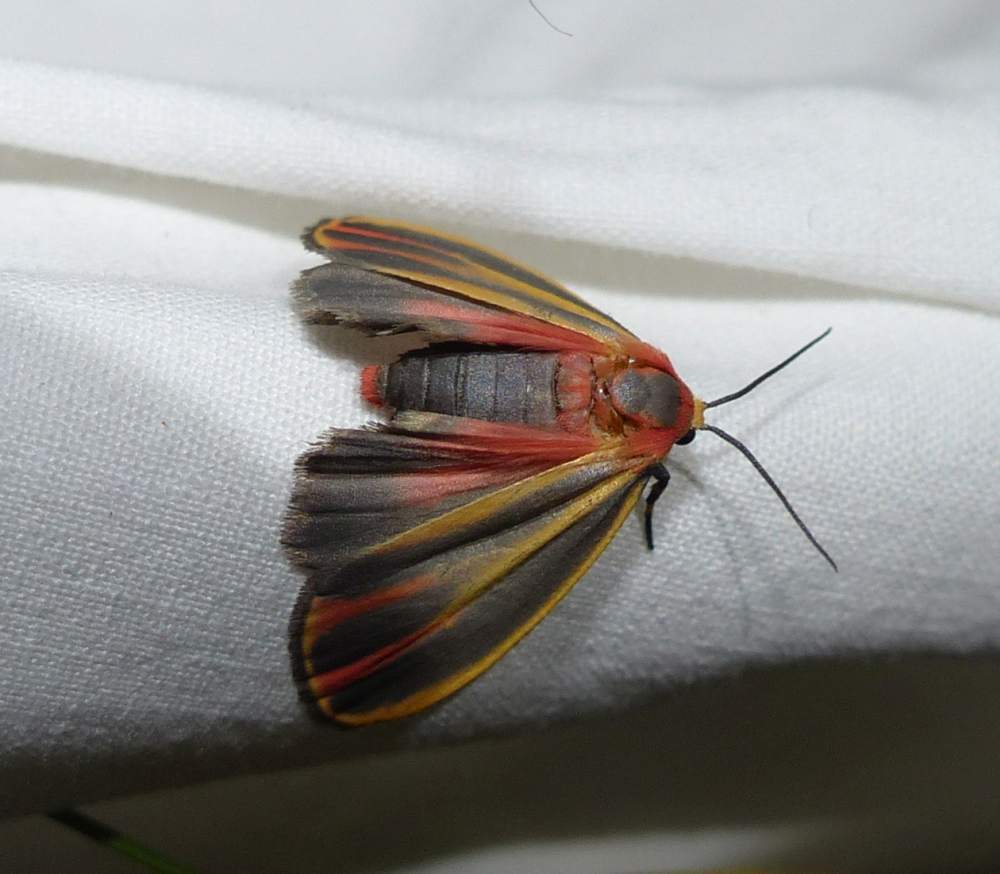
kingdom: Animalia
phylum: Arthropoda
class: Insecta
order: Lepidoptera
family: Erebidae
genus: Hypoprepia
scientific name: Hypoprepia fucosa
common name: Painted lichen moth
